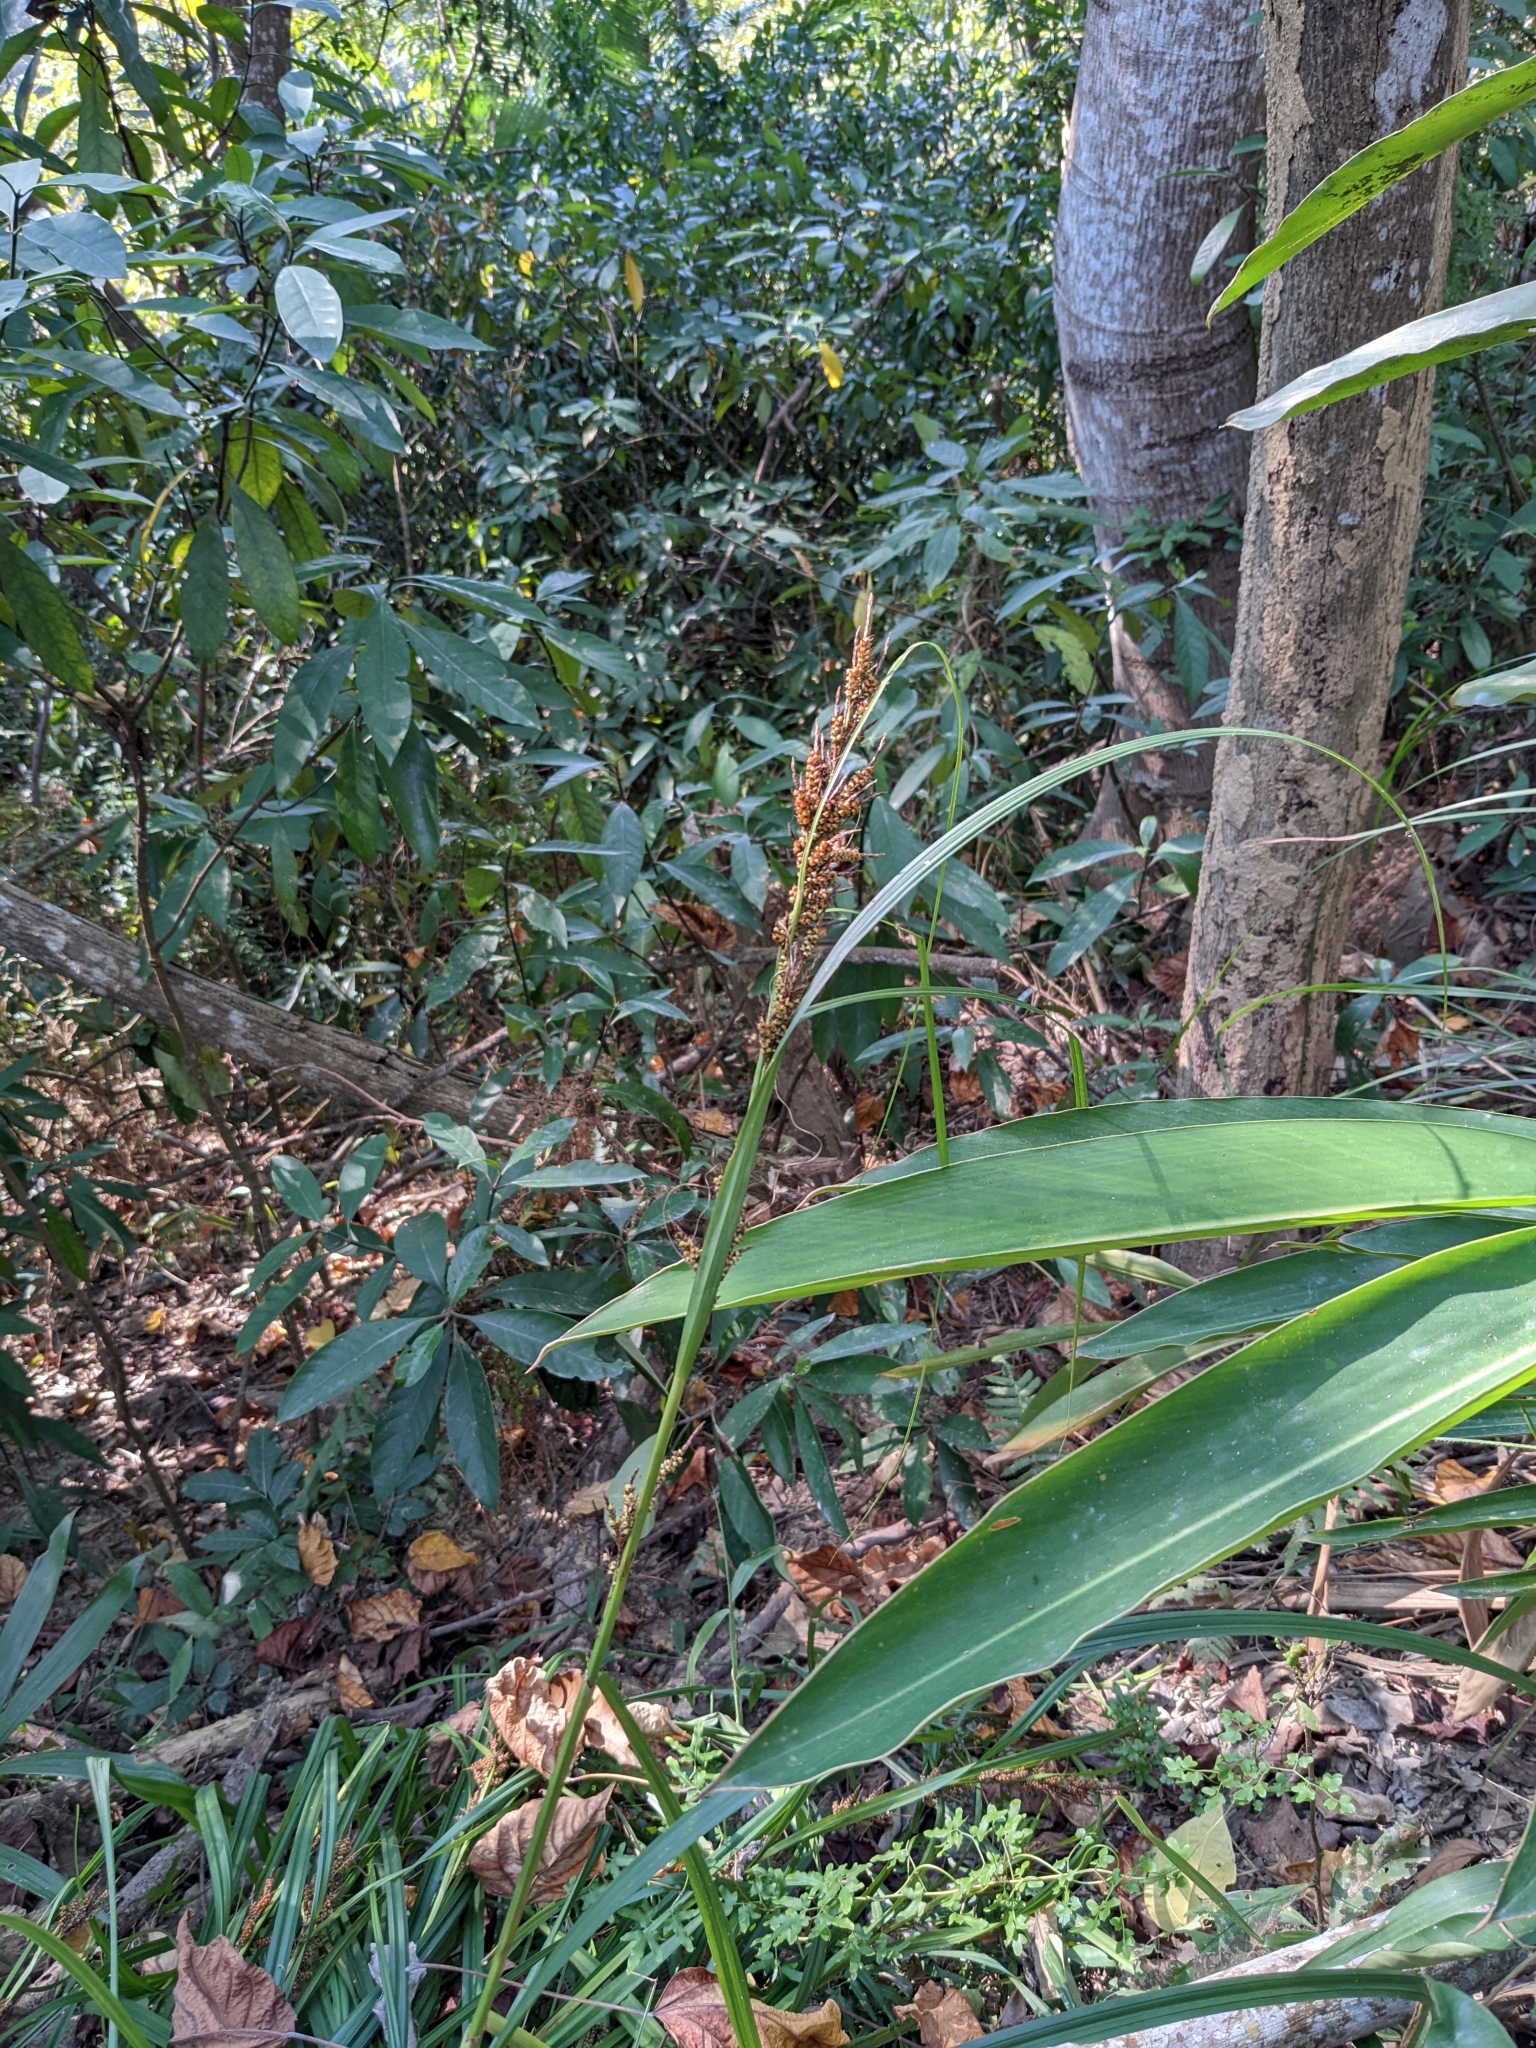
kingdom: Plantae
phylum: Tracheophyta
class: Liliopsida
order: Poales
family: Cyperaceae
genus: Carex
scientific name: Carex baccans
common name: Crimson seeded sedge
